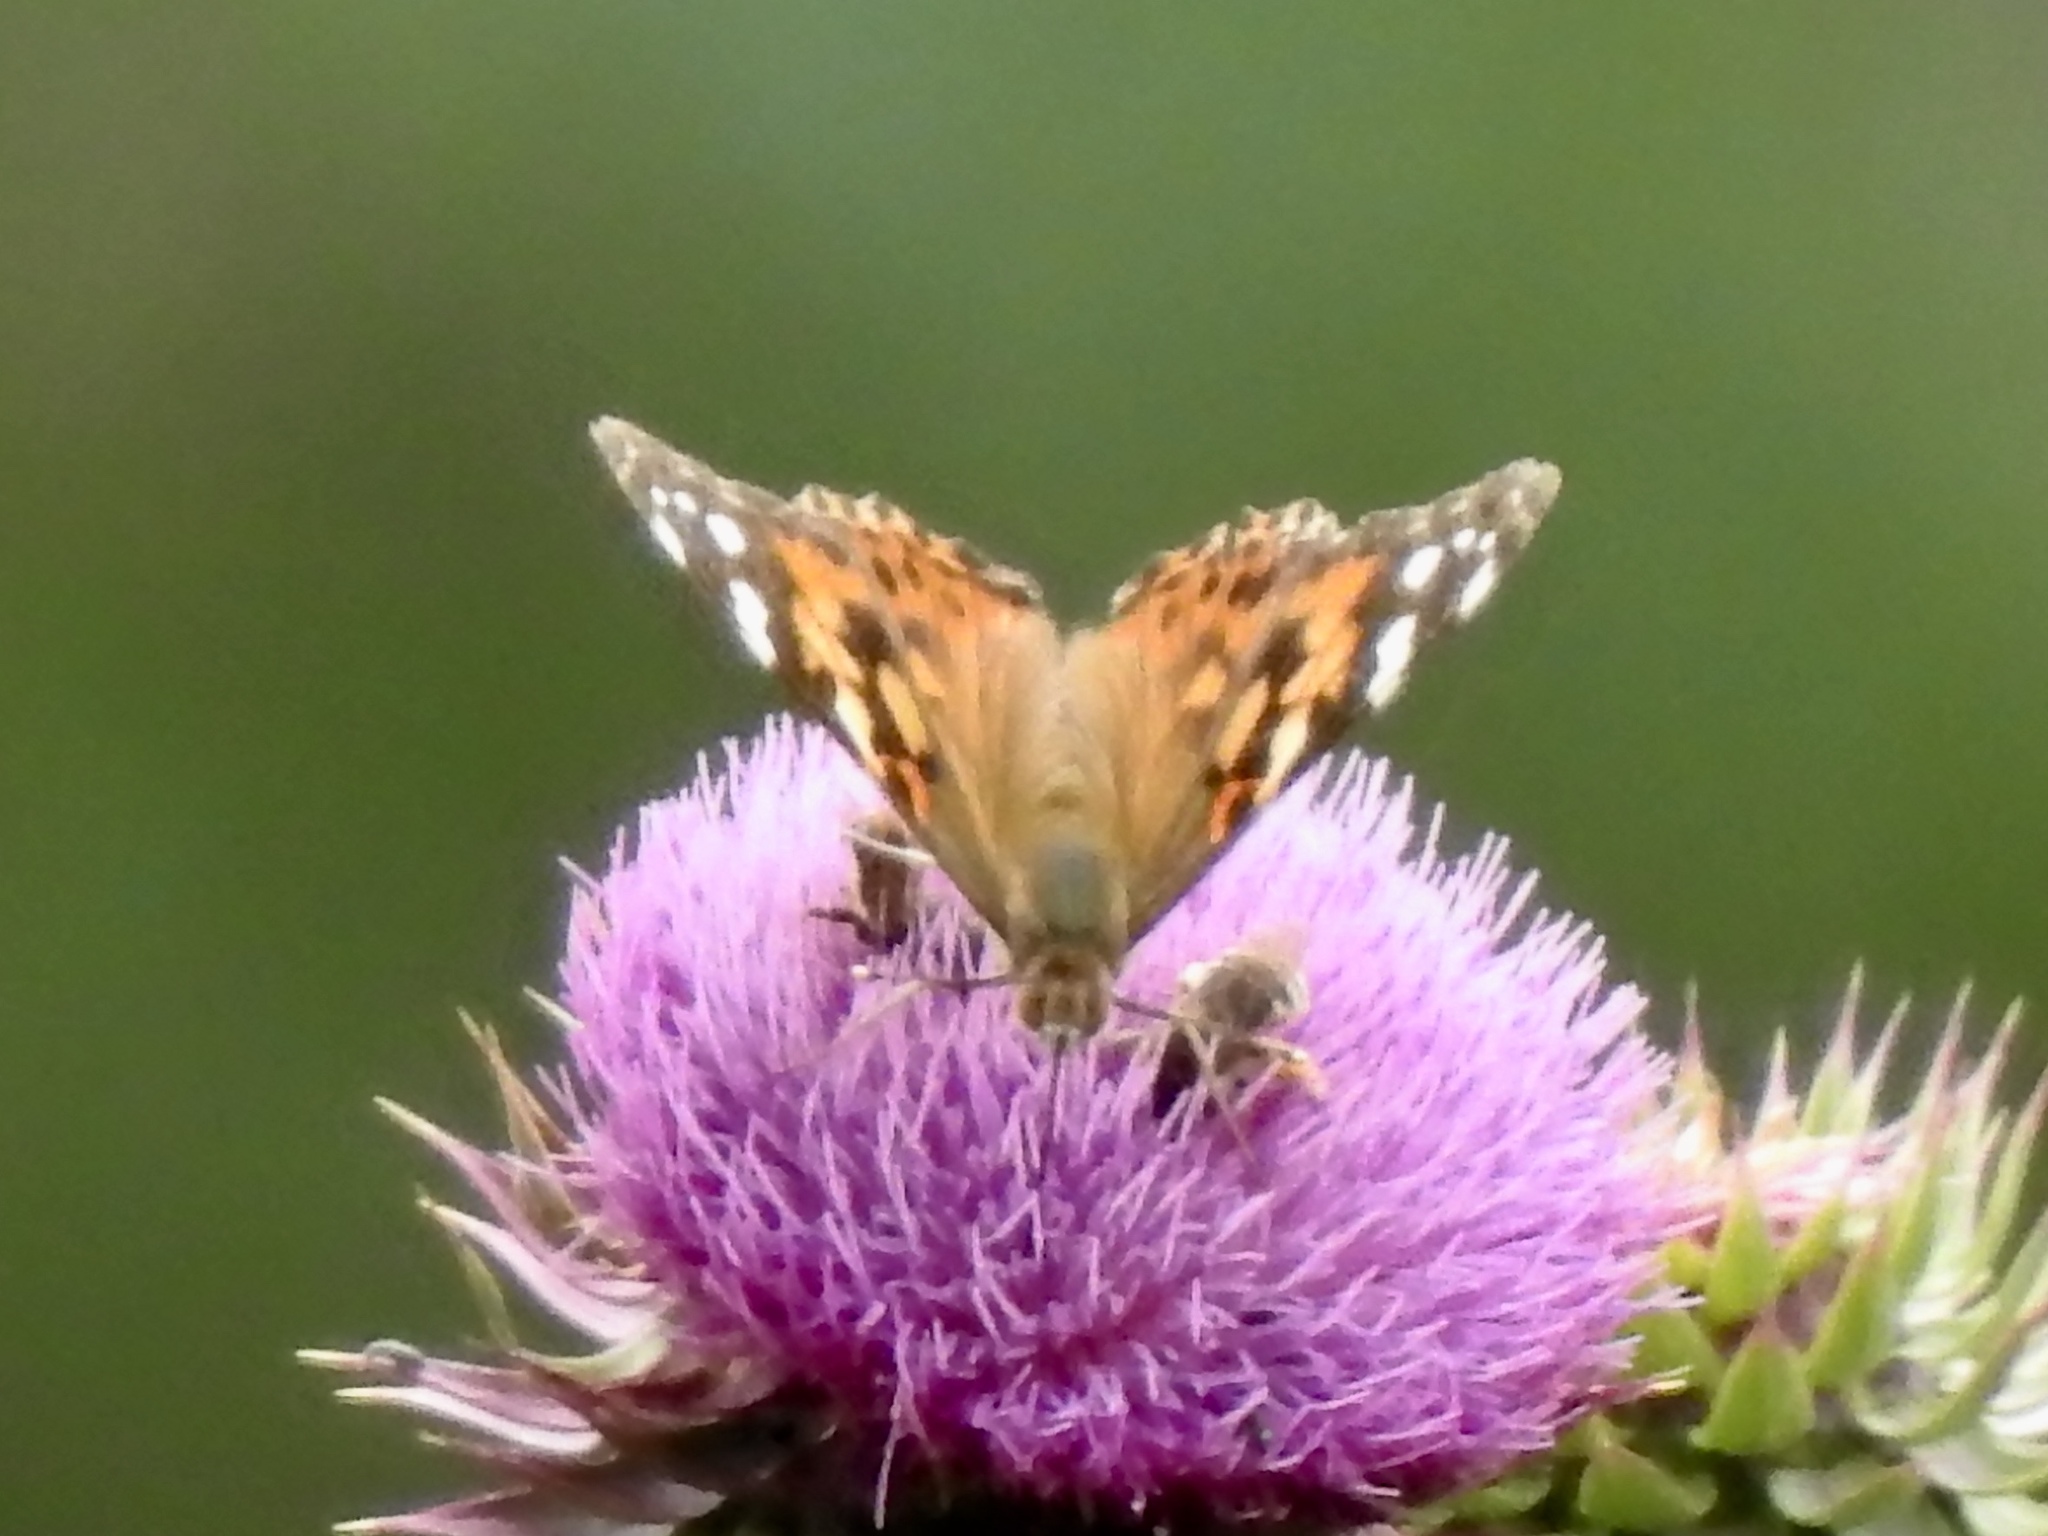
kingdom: Animalia
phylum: Arthropoda
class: Insecta
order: Lepidoptera
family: Nymphalidae
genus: Vanessa
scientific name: Vanessa cardui
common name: Painted lady
